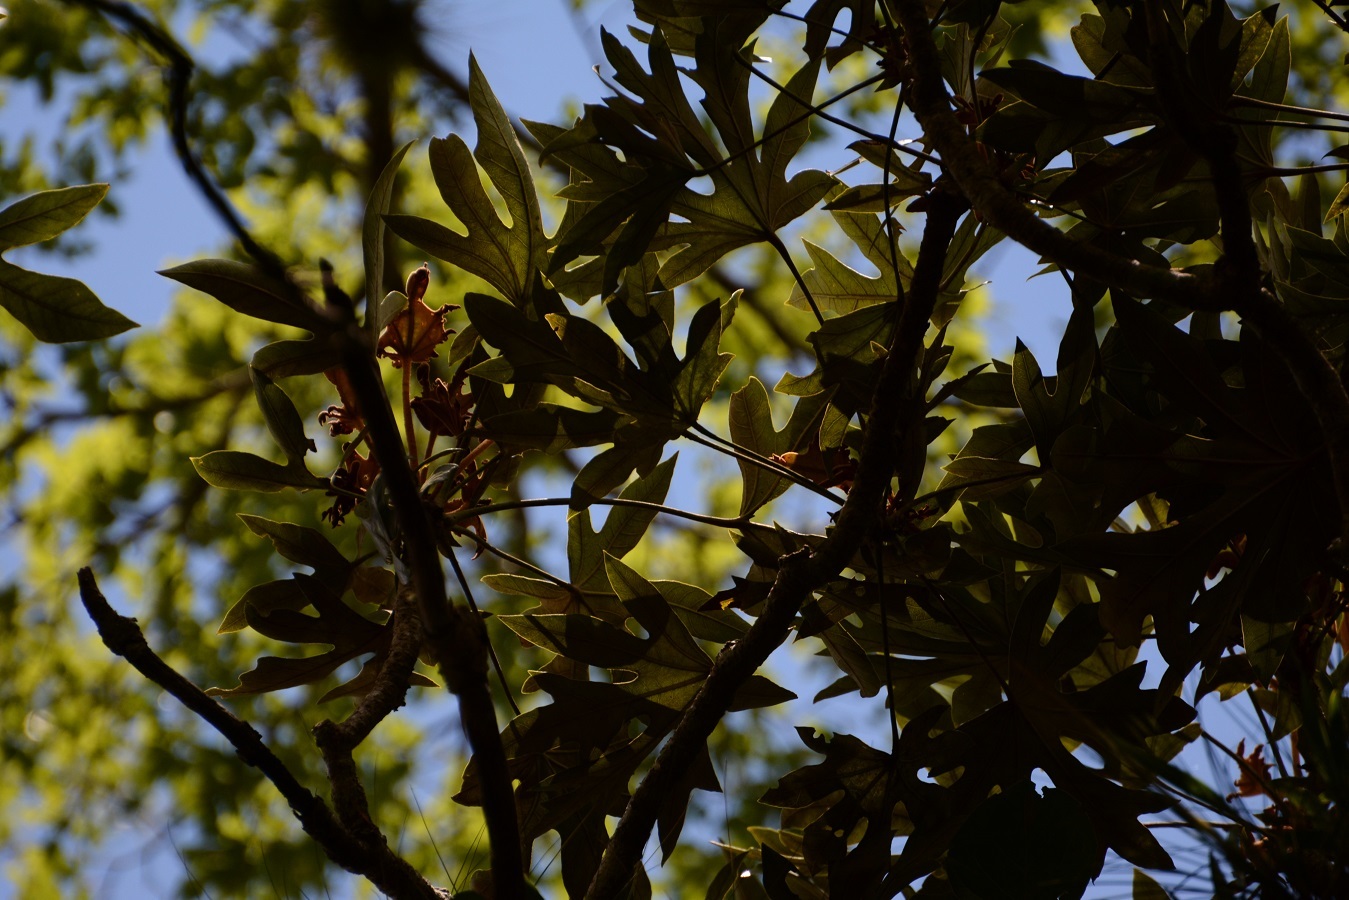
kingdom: Plantae
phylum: Tracheophyta
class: Magnoliopsida
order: Apiales
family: Araliaceae
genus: Oreopanax
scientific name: Oreopanax geminatus
